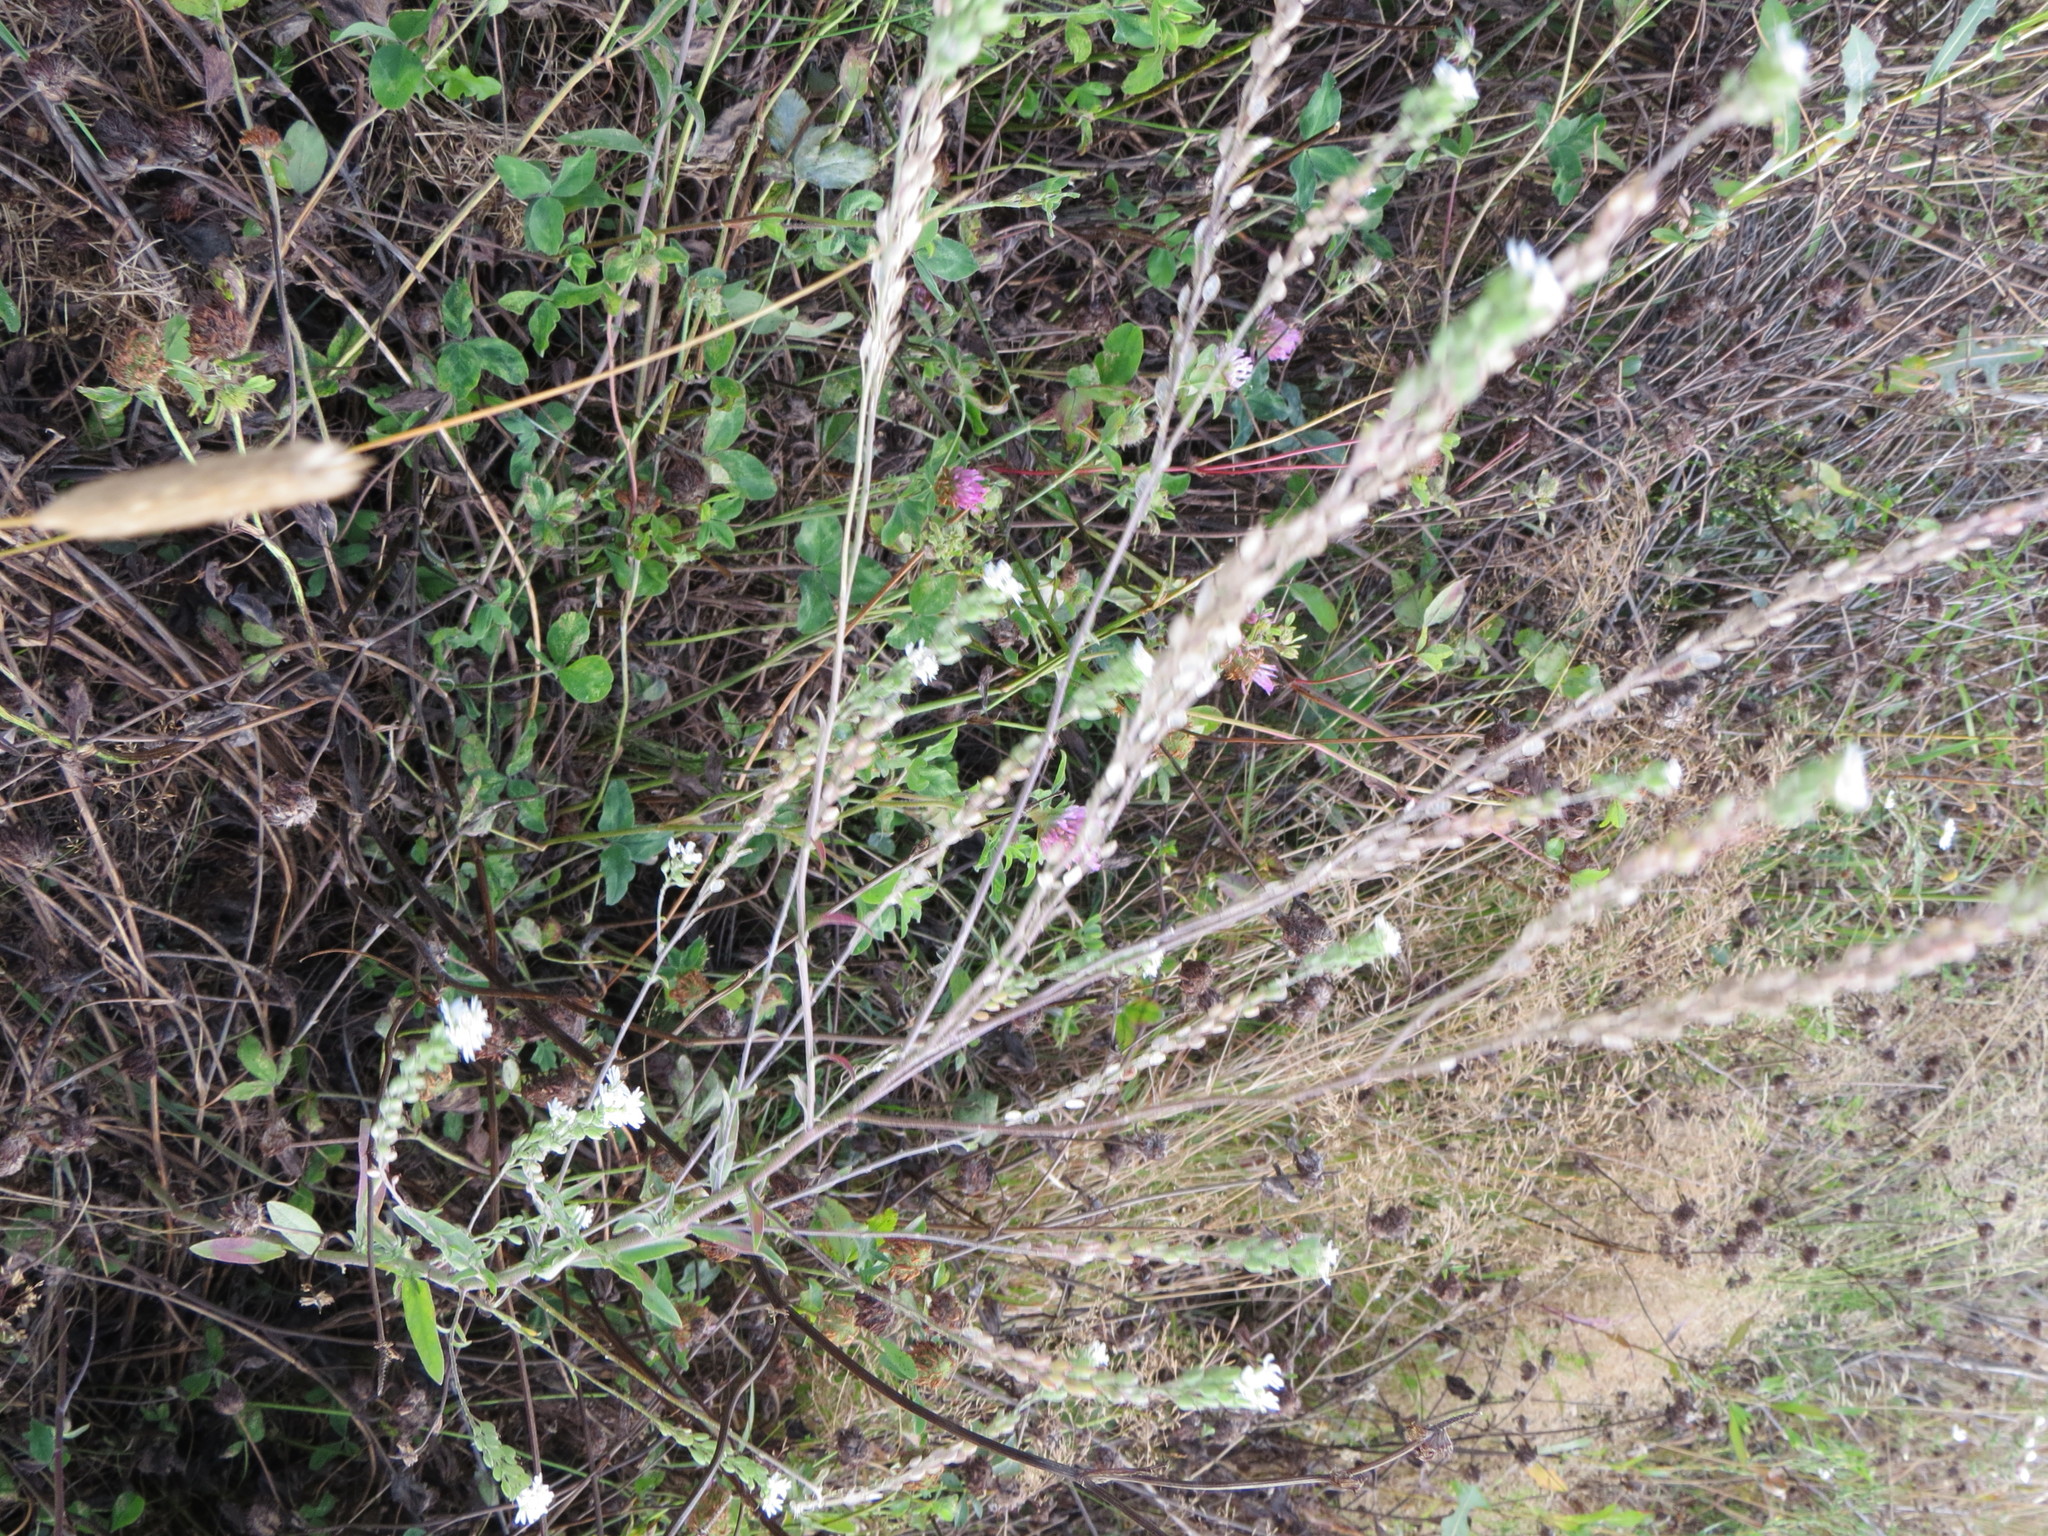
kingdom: Plantae
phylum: Tracheophyta
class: Magnoliopsida
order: Brassicales
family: Brassicaceae
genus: Berteroa
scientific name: Berteroa incana
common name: Hoary alison
